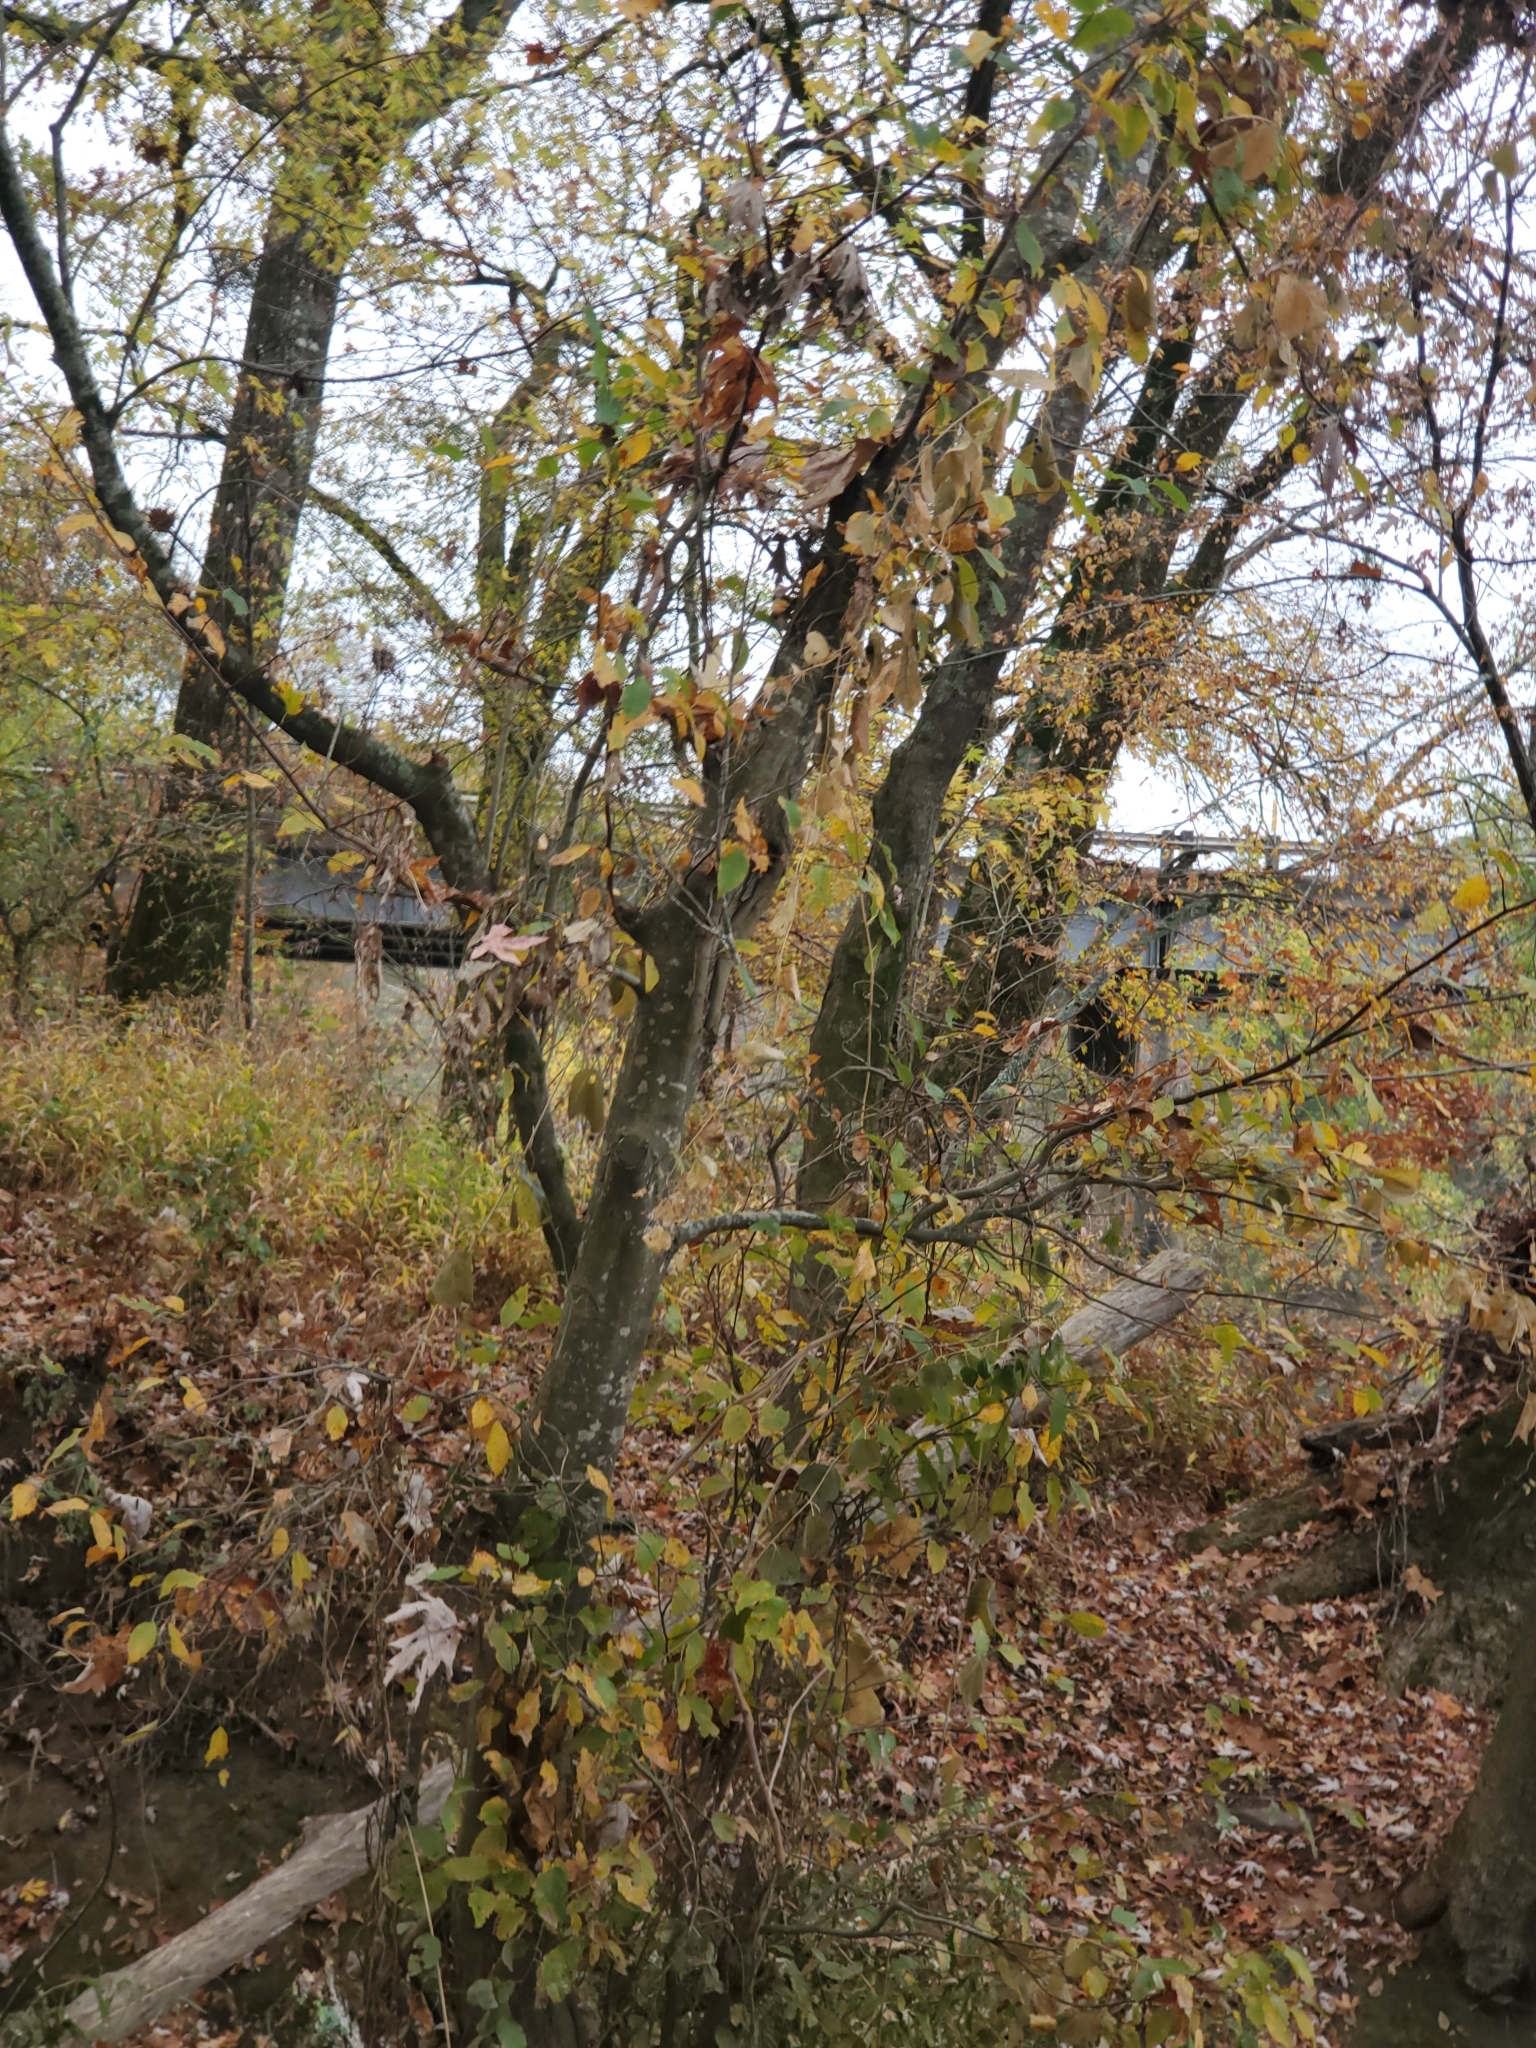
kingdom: Plantae
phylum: Tracheophyta
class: Magnoliopsida
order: Fagales
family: Betulaceae
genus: Carpinus
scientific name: Carpinus caroliniana
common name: American hornbeam
